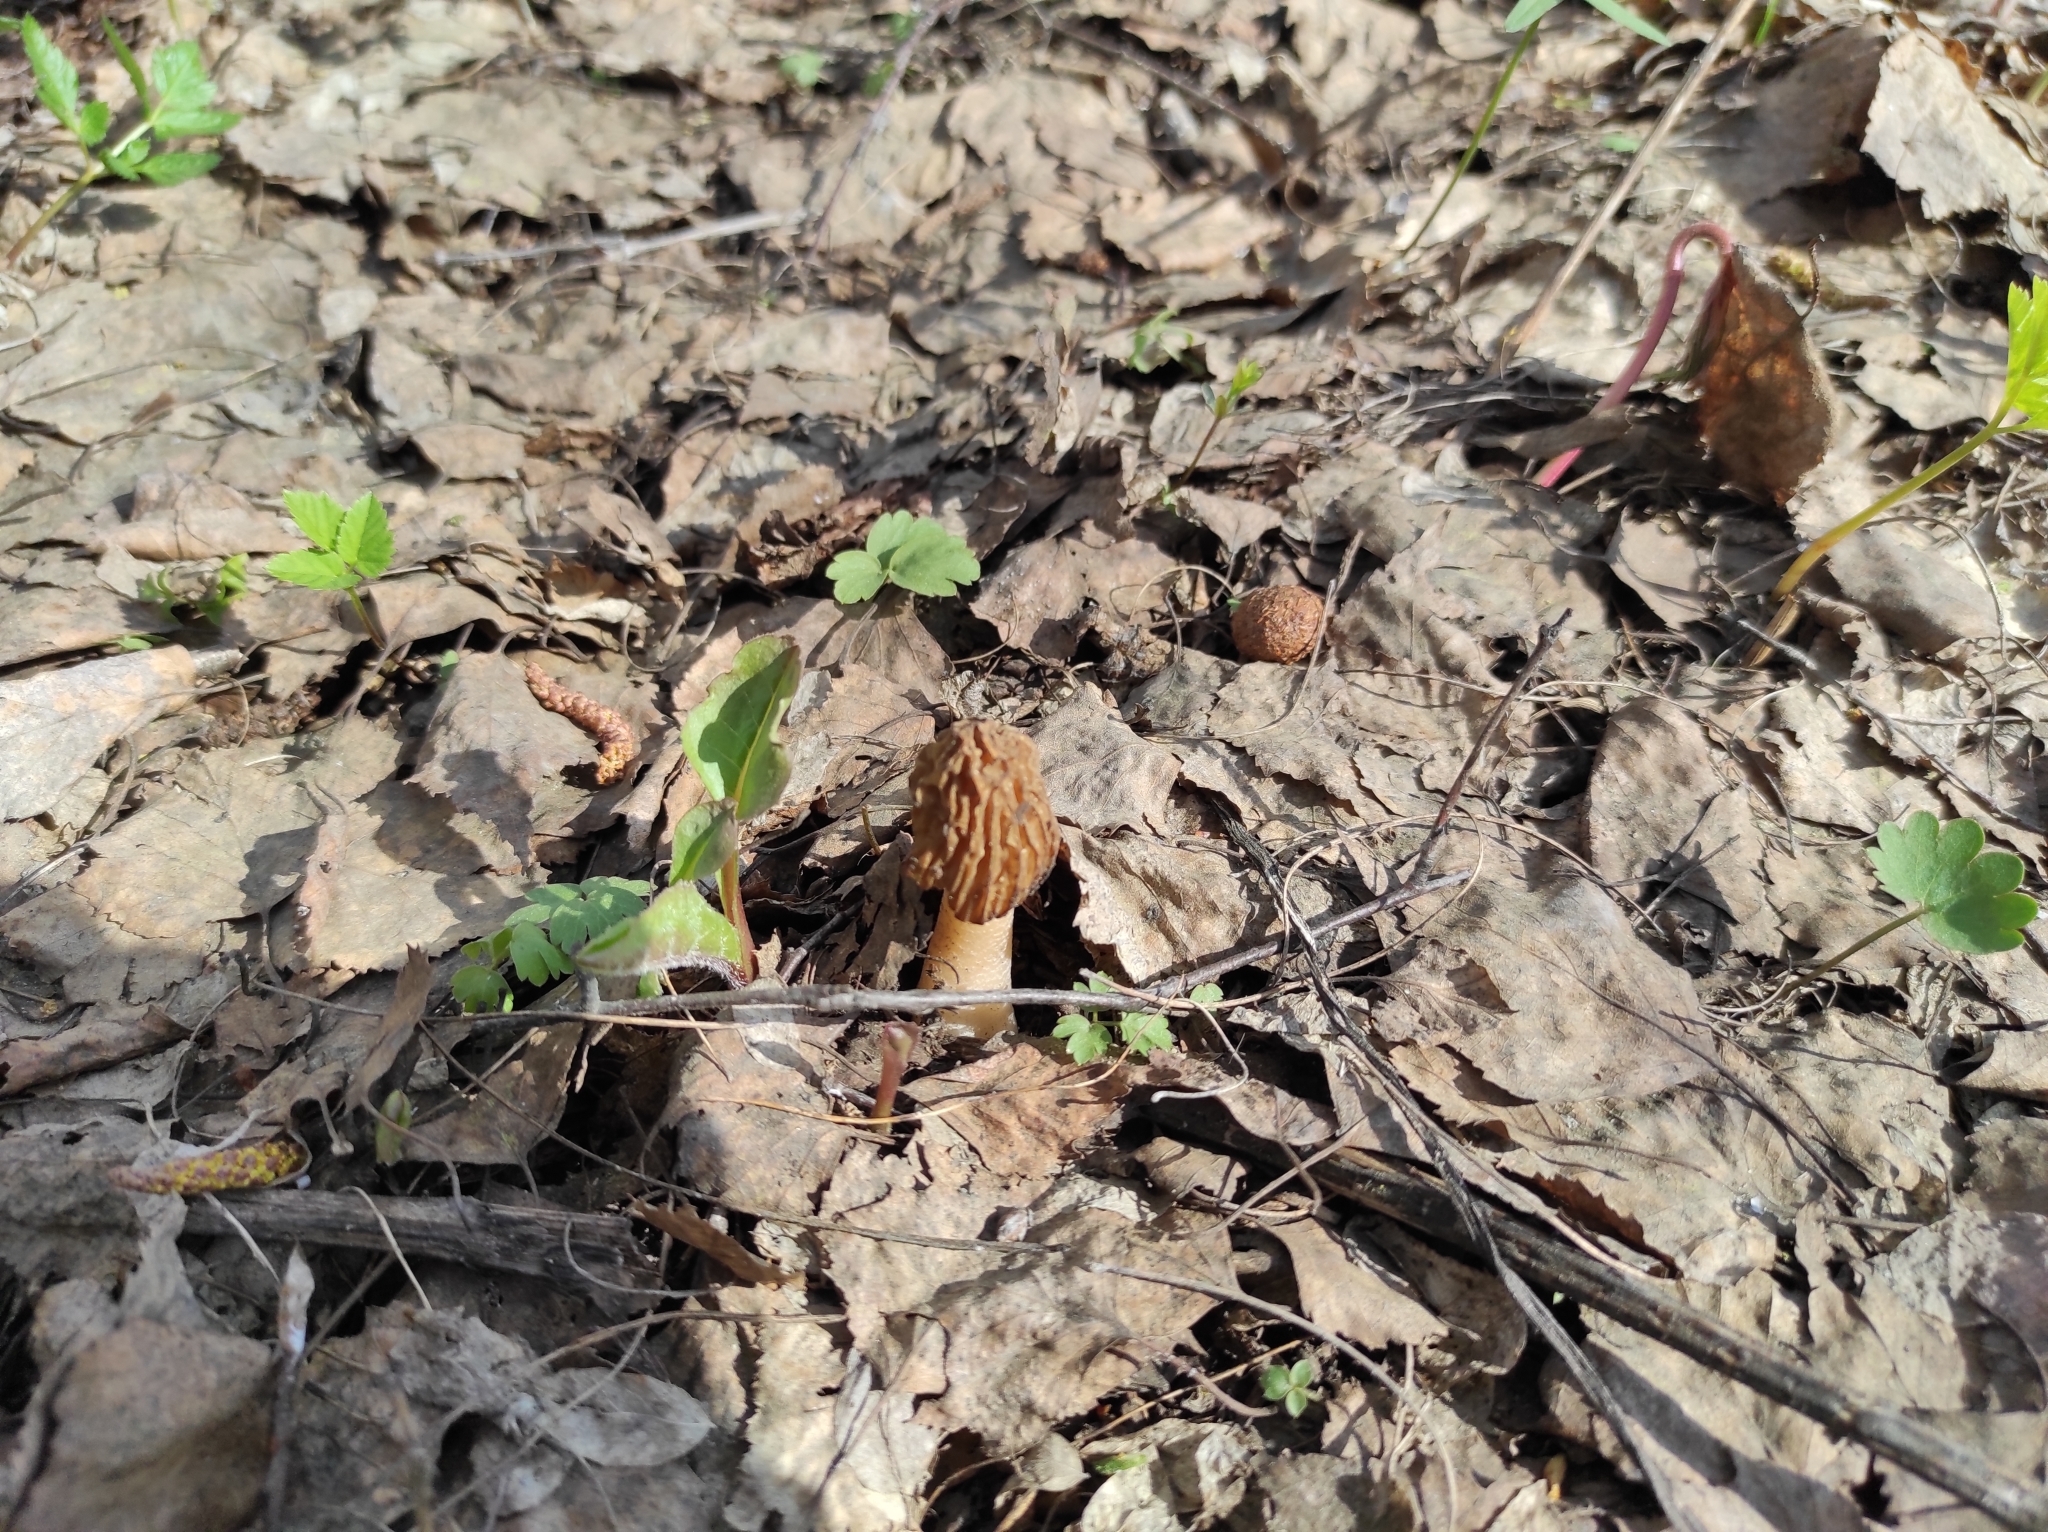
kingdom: Fungi
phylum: Ascomycota
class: Pezizomycetes
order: Pezizales
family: Morchellaceae
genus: Verpa
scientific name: Verpa bohemica
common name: Wrinkled thimble morel
